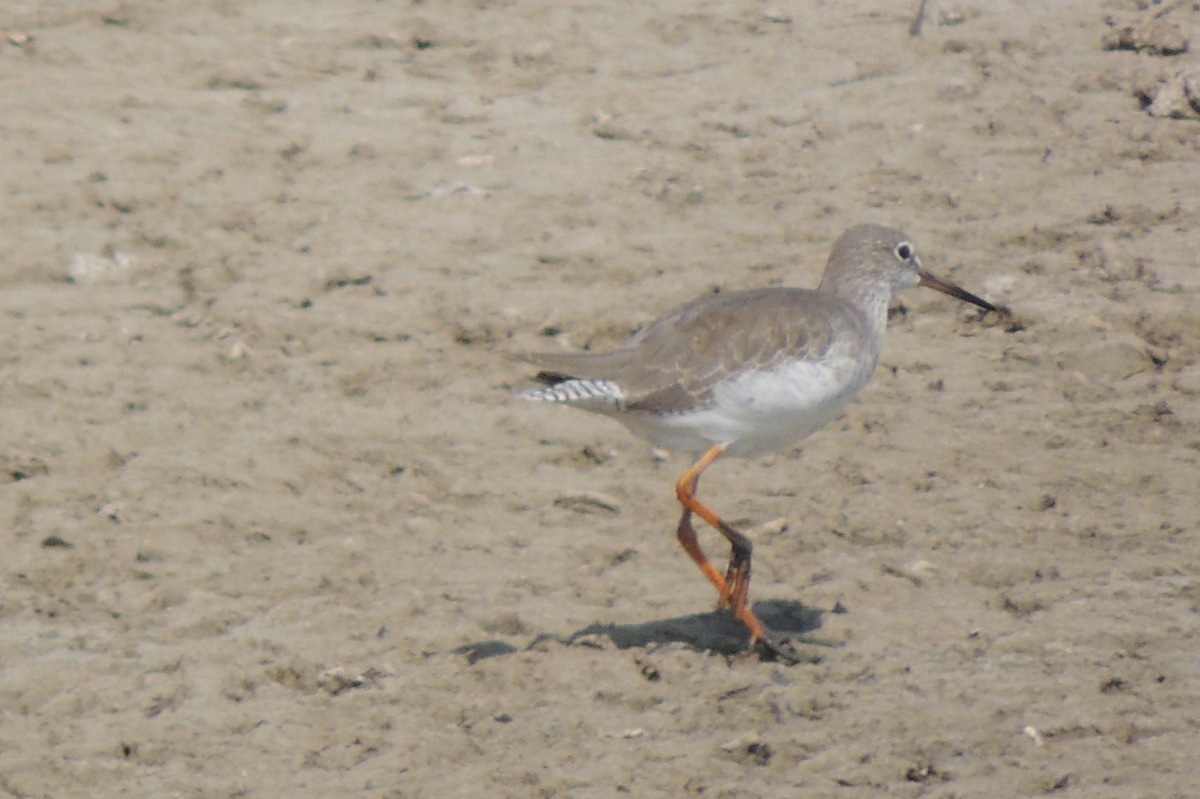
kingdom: Animalia
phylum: Chordata
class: Aves
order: Charadriiformes
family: Scolopacidae
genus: Tringa
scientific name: Tringa totanus
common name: Common redshank
